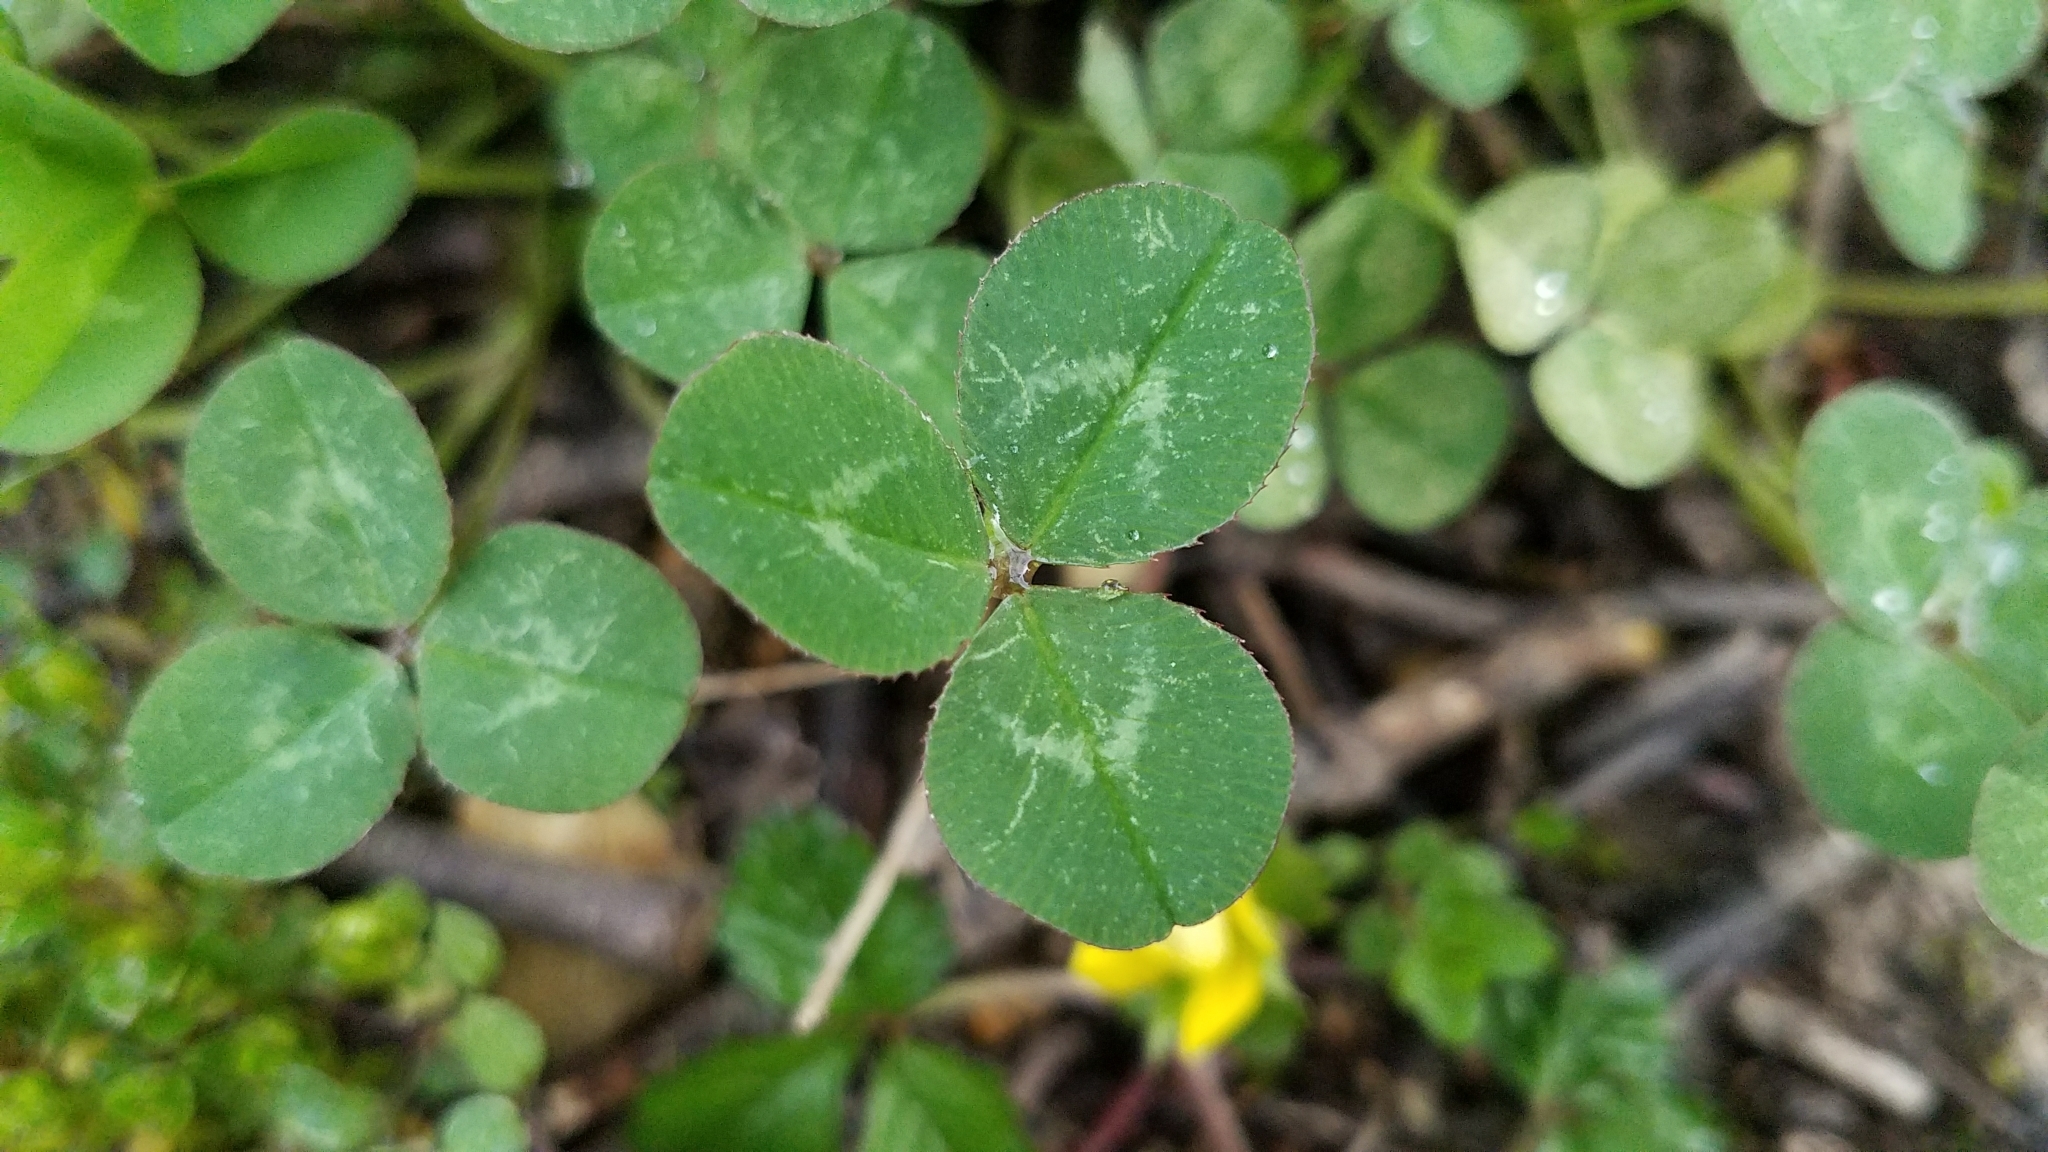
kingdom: Plantae
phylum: Tracheophyta
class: Magnoliopsida
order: Fabales
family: Fabaceae
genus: Trifolium
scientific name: Trifolium repens
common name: White clover
